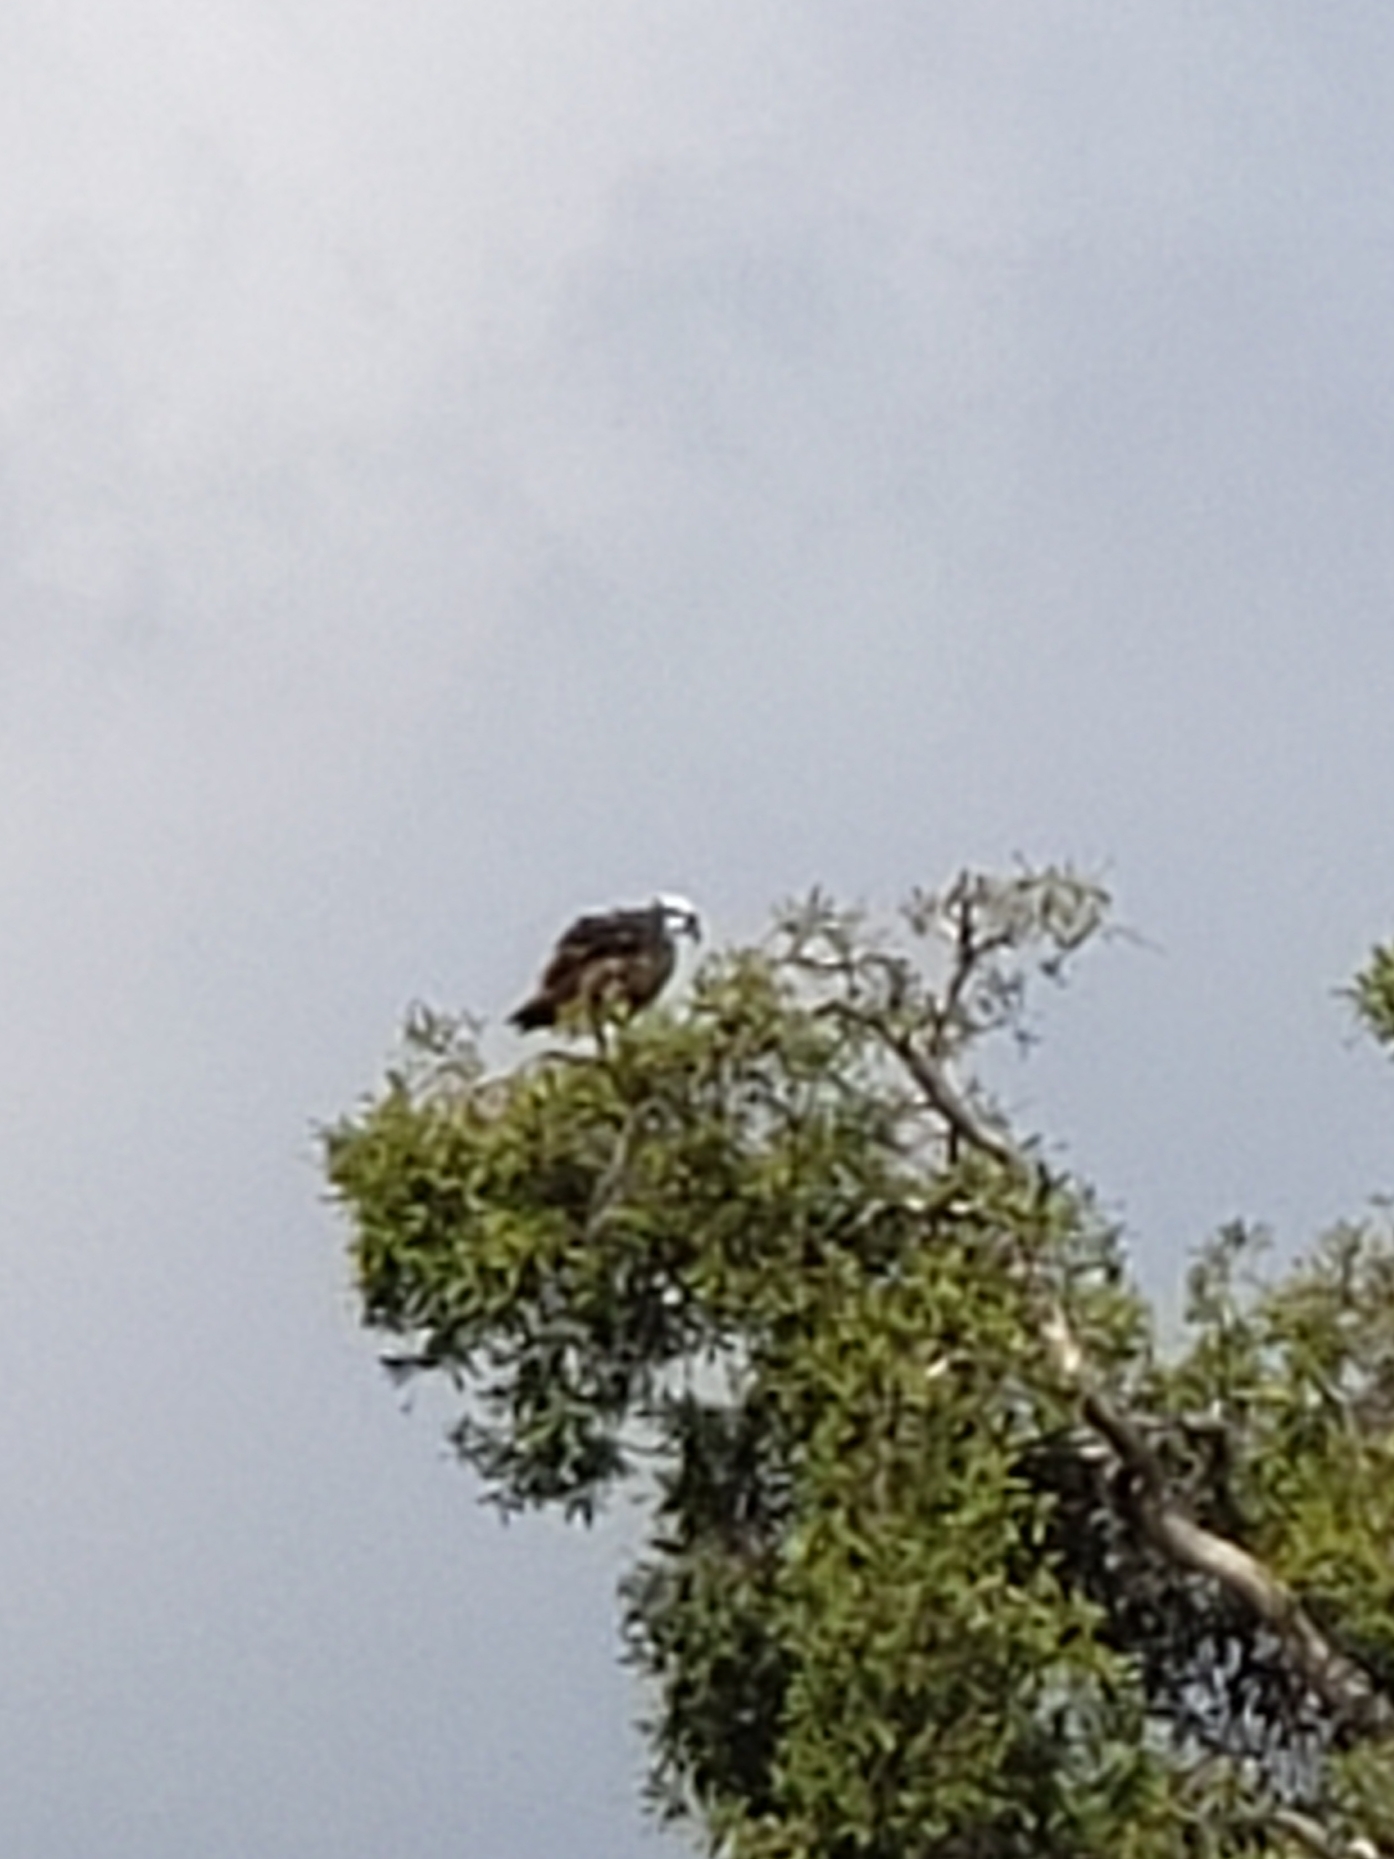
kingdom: Animalia
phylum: Chordata
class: Aves
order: Accipitriformes
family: Pandionidae
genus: Pandion
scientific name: Pandion haliaetus
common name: Osprey
